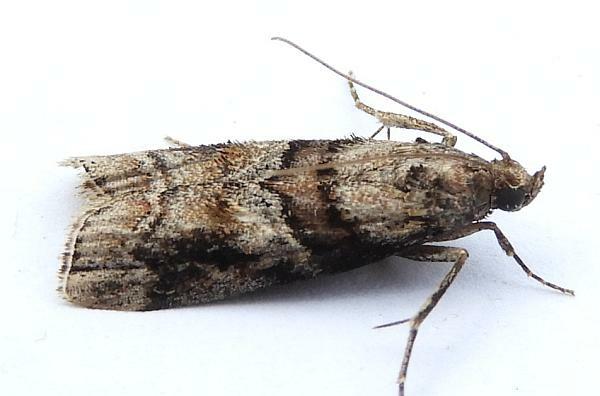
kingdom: Animalia
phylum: Arthropoda
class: Insecta
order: Lepidoptera
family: Pyralidae
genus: Dioryctria
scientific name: Dioryctria clarioralis
